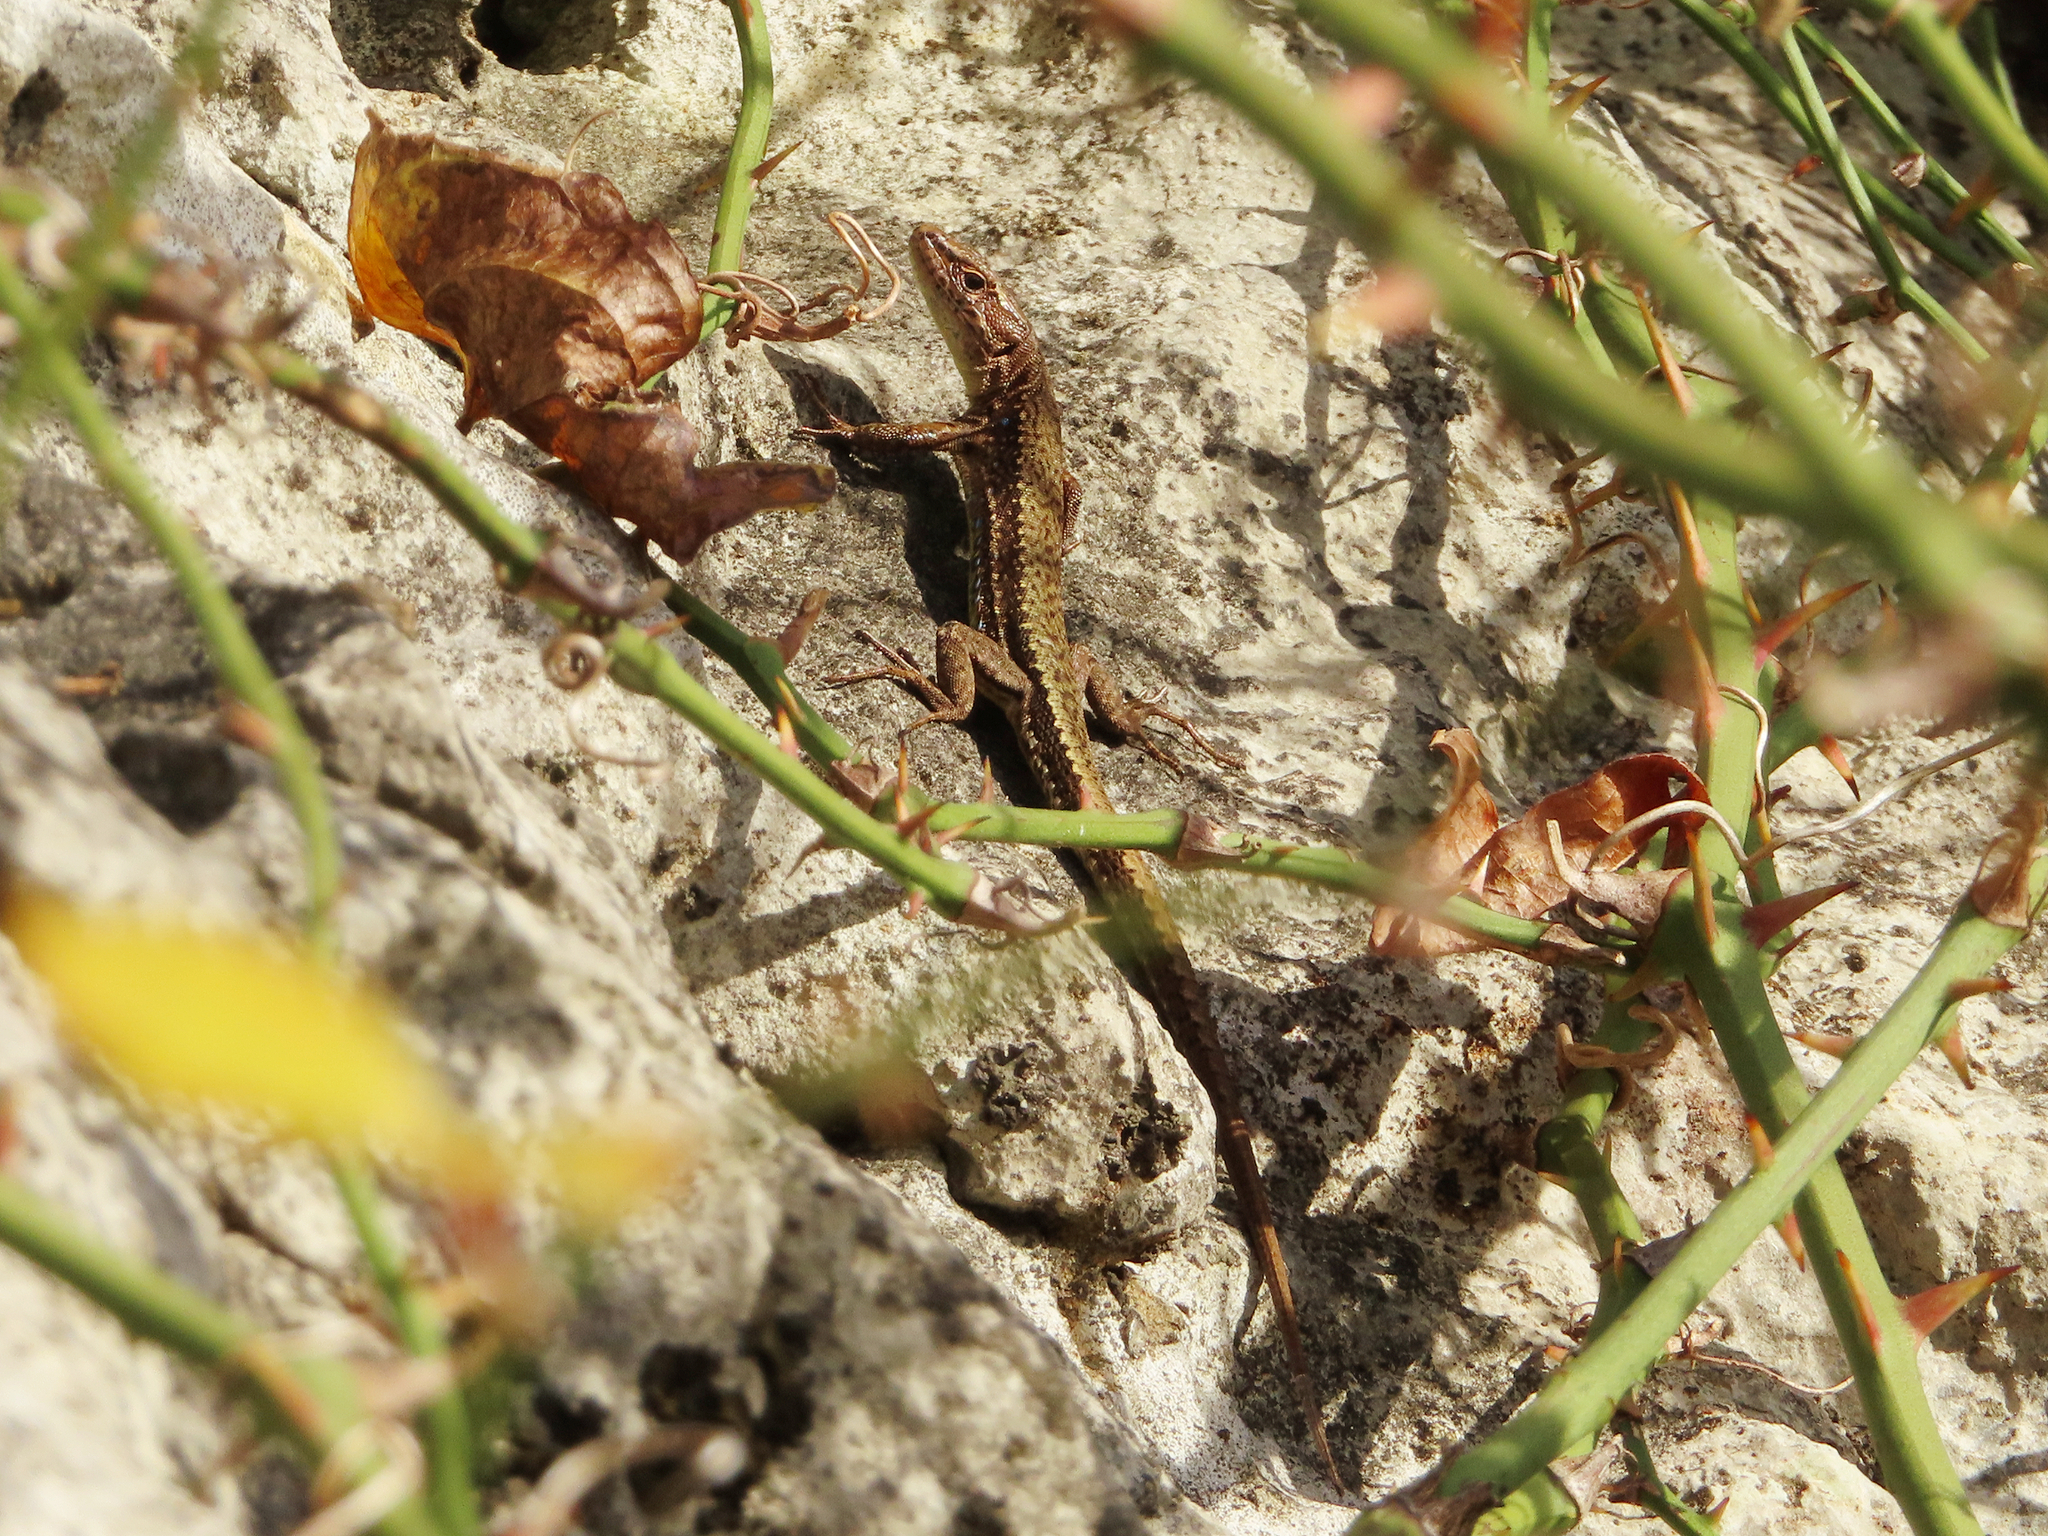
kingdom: Animalia
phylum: Chordata
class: Squamata
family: Lacertidae
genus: Darevskia
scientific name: Darevskia derjugini
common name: Derjugin's lizard
